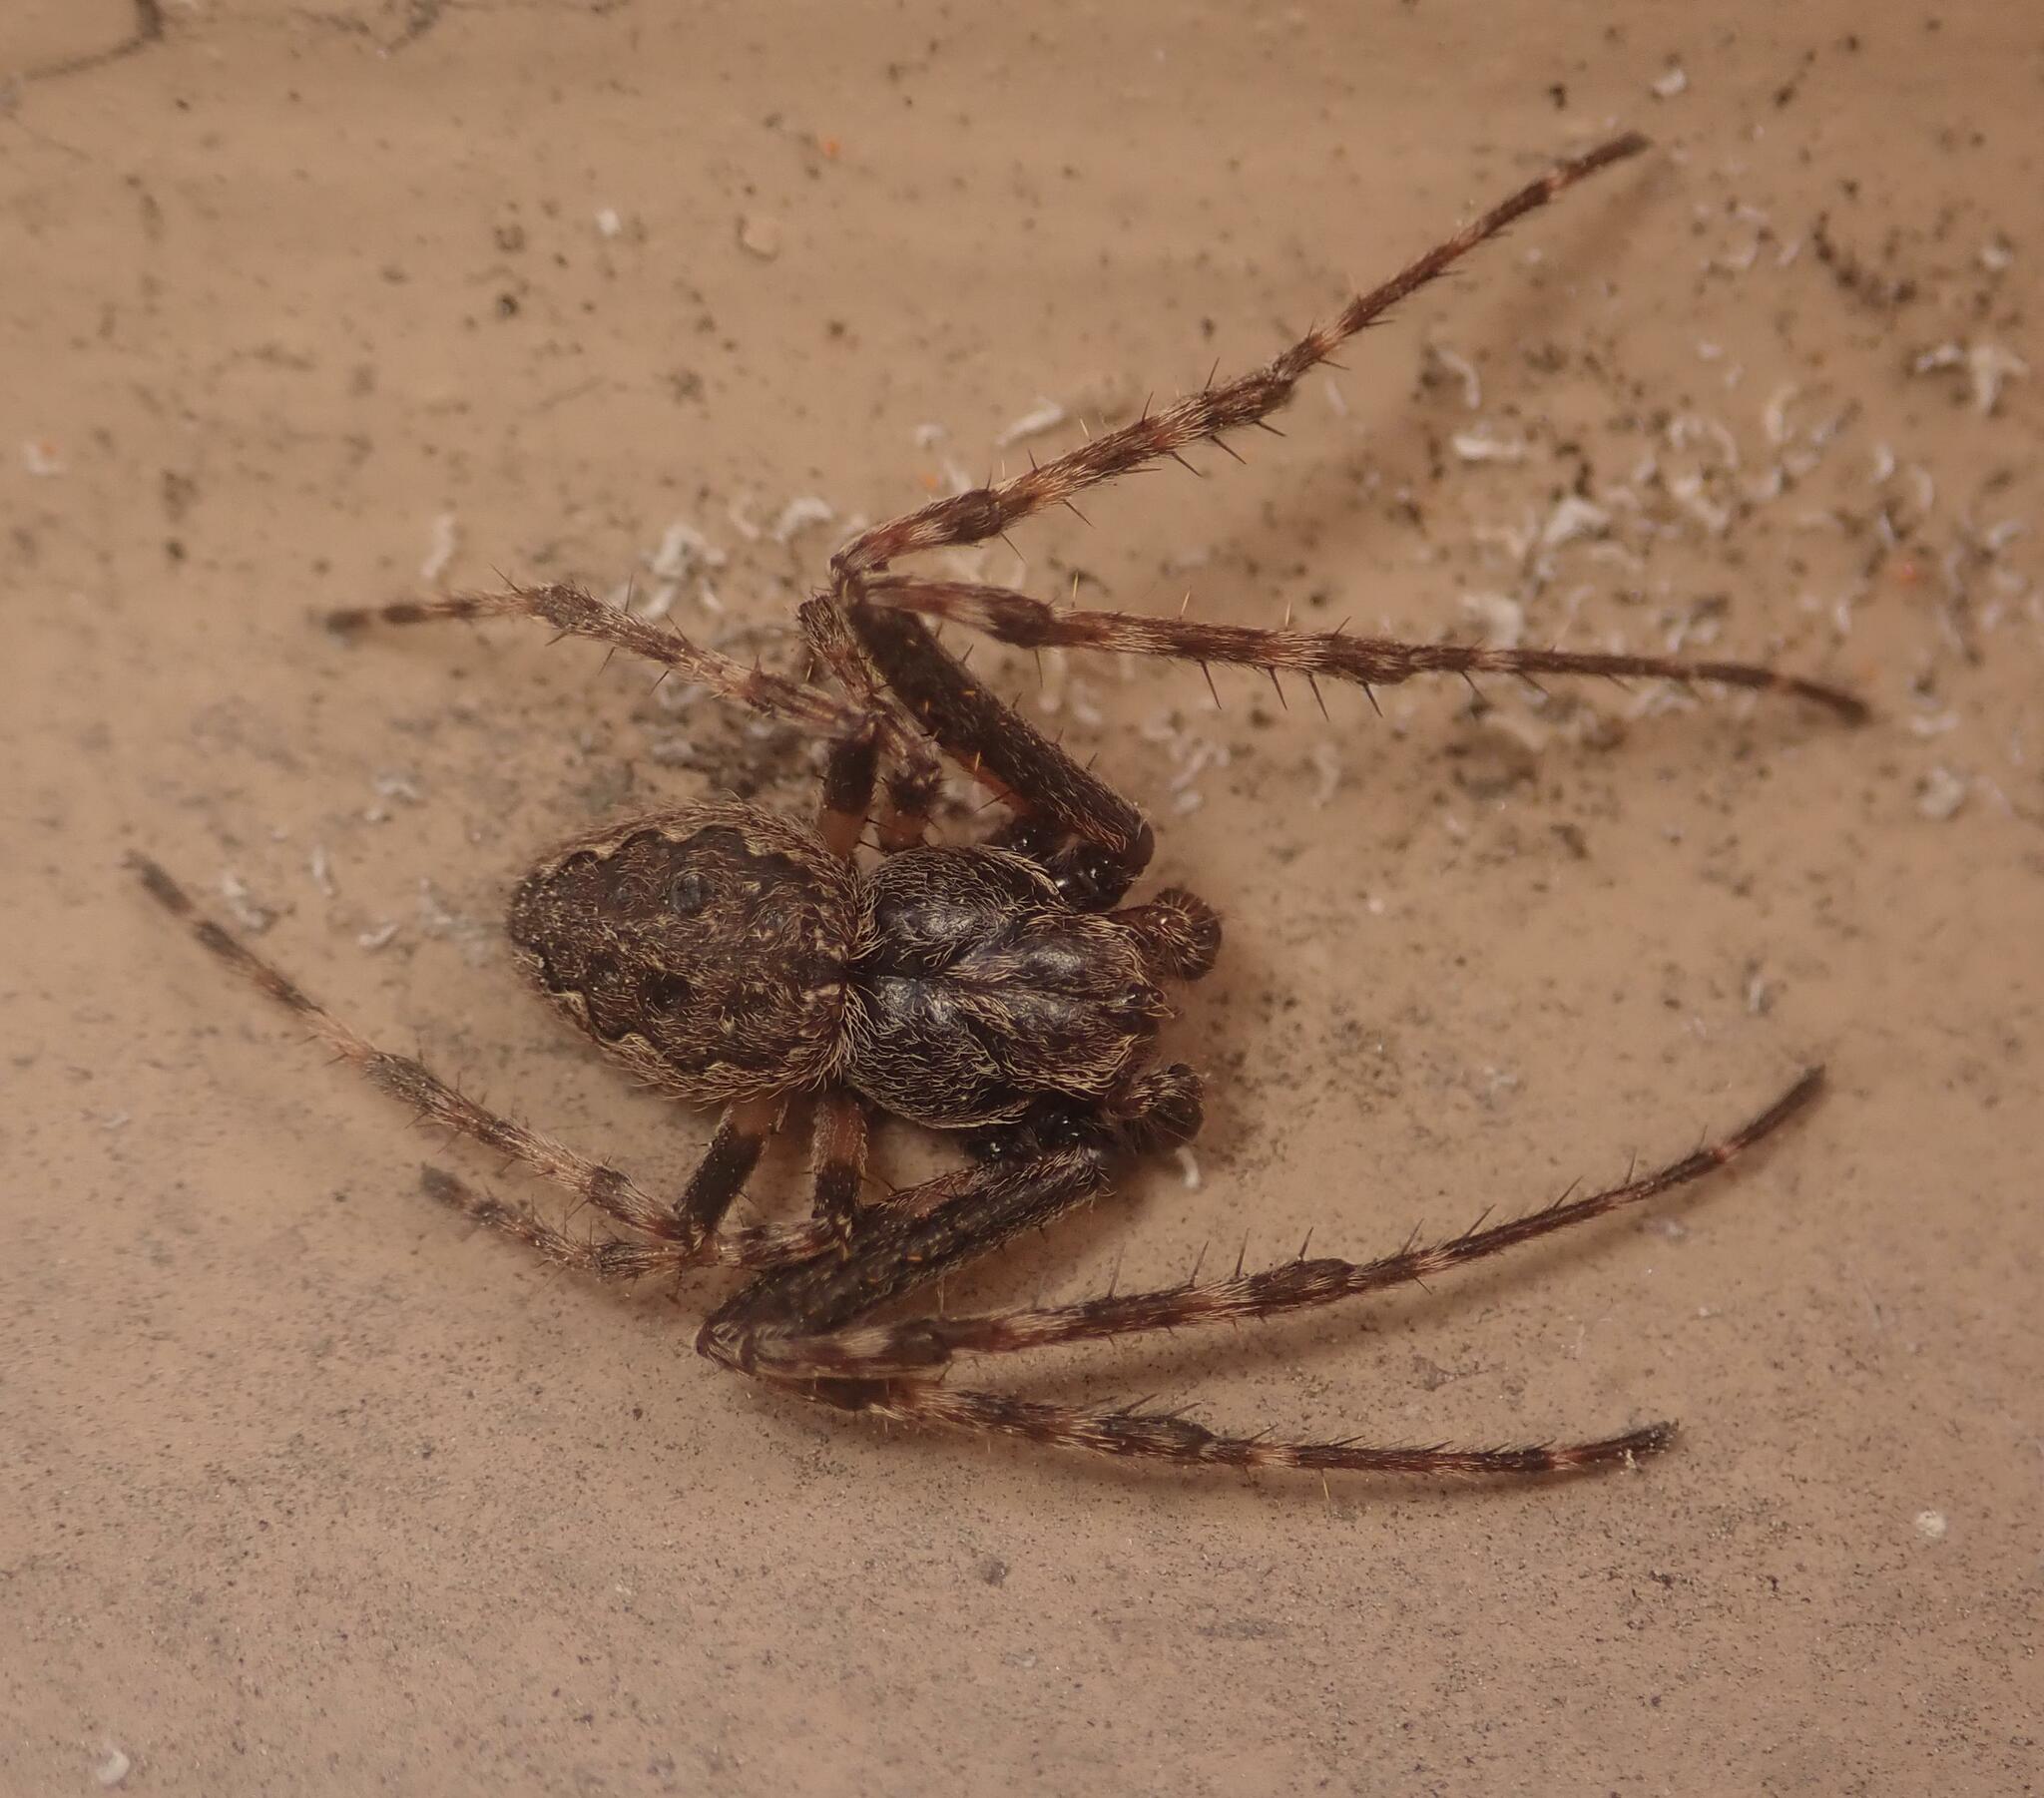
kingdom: Animalia
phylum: Arthropoda
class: Arachnida
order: Araneae
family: Araneidae
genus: Nuctenea
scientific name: Nuctenea umbratica
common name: Toad spider
